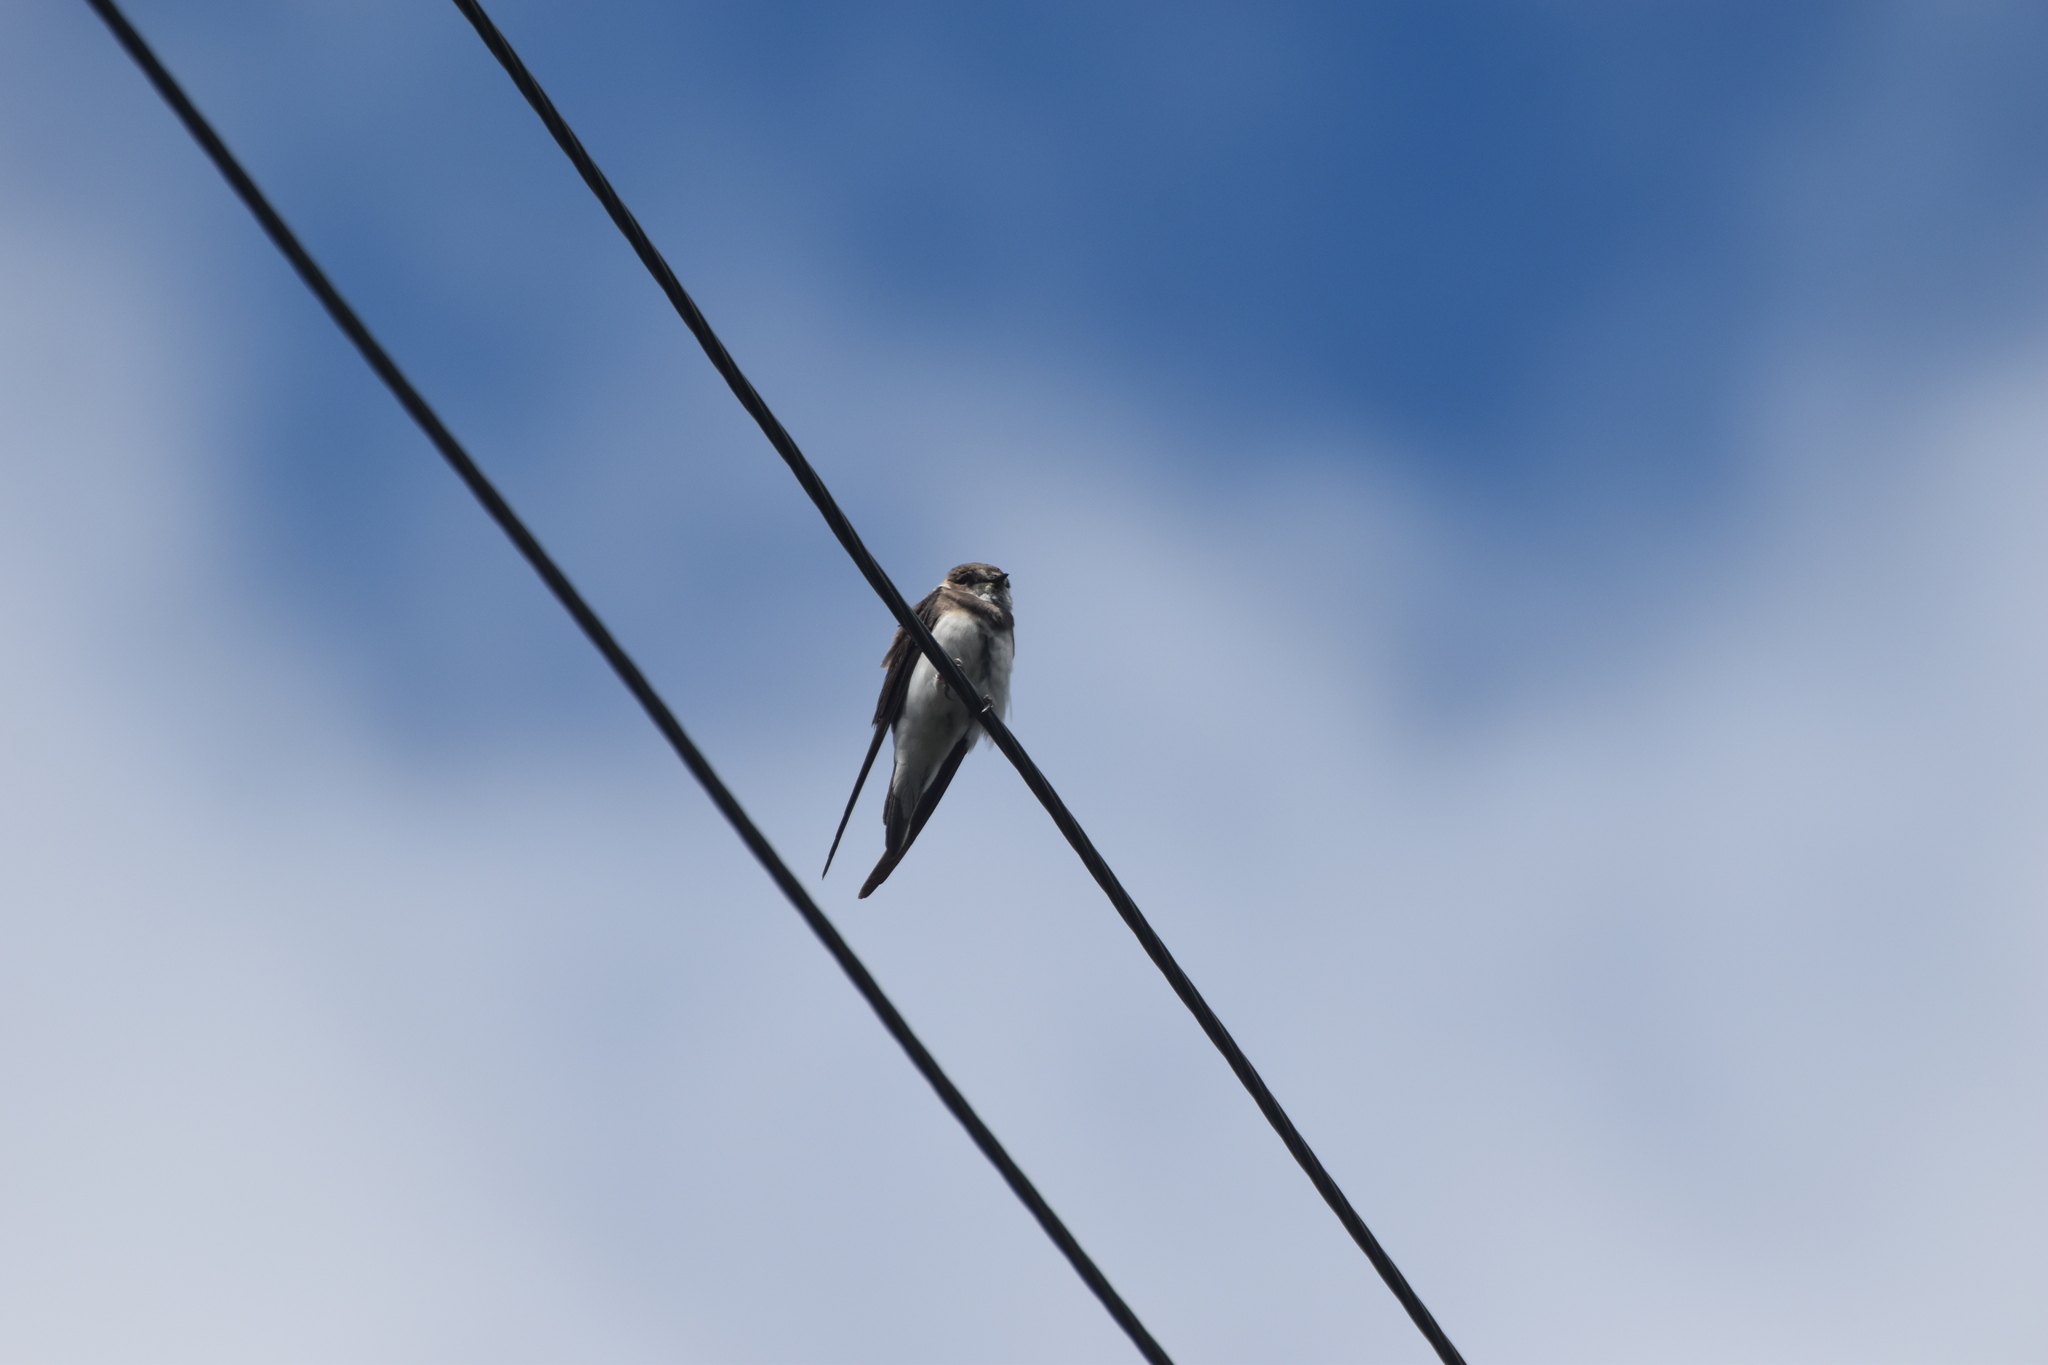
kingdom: Animalia
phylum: Chordata
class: Aves
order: Passeriformes
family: Hirundinidae
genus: Riparia
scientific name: Riparia riparia
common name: Sand martin
